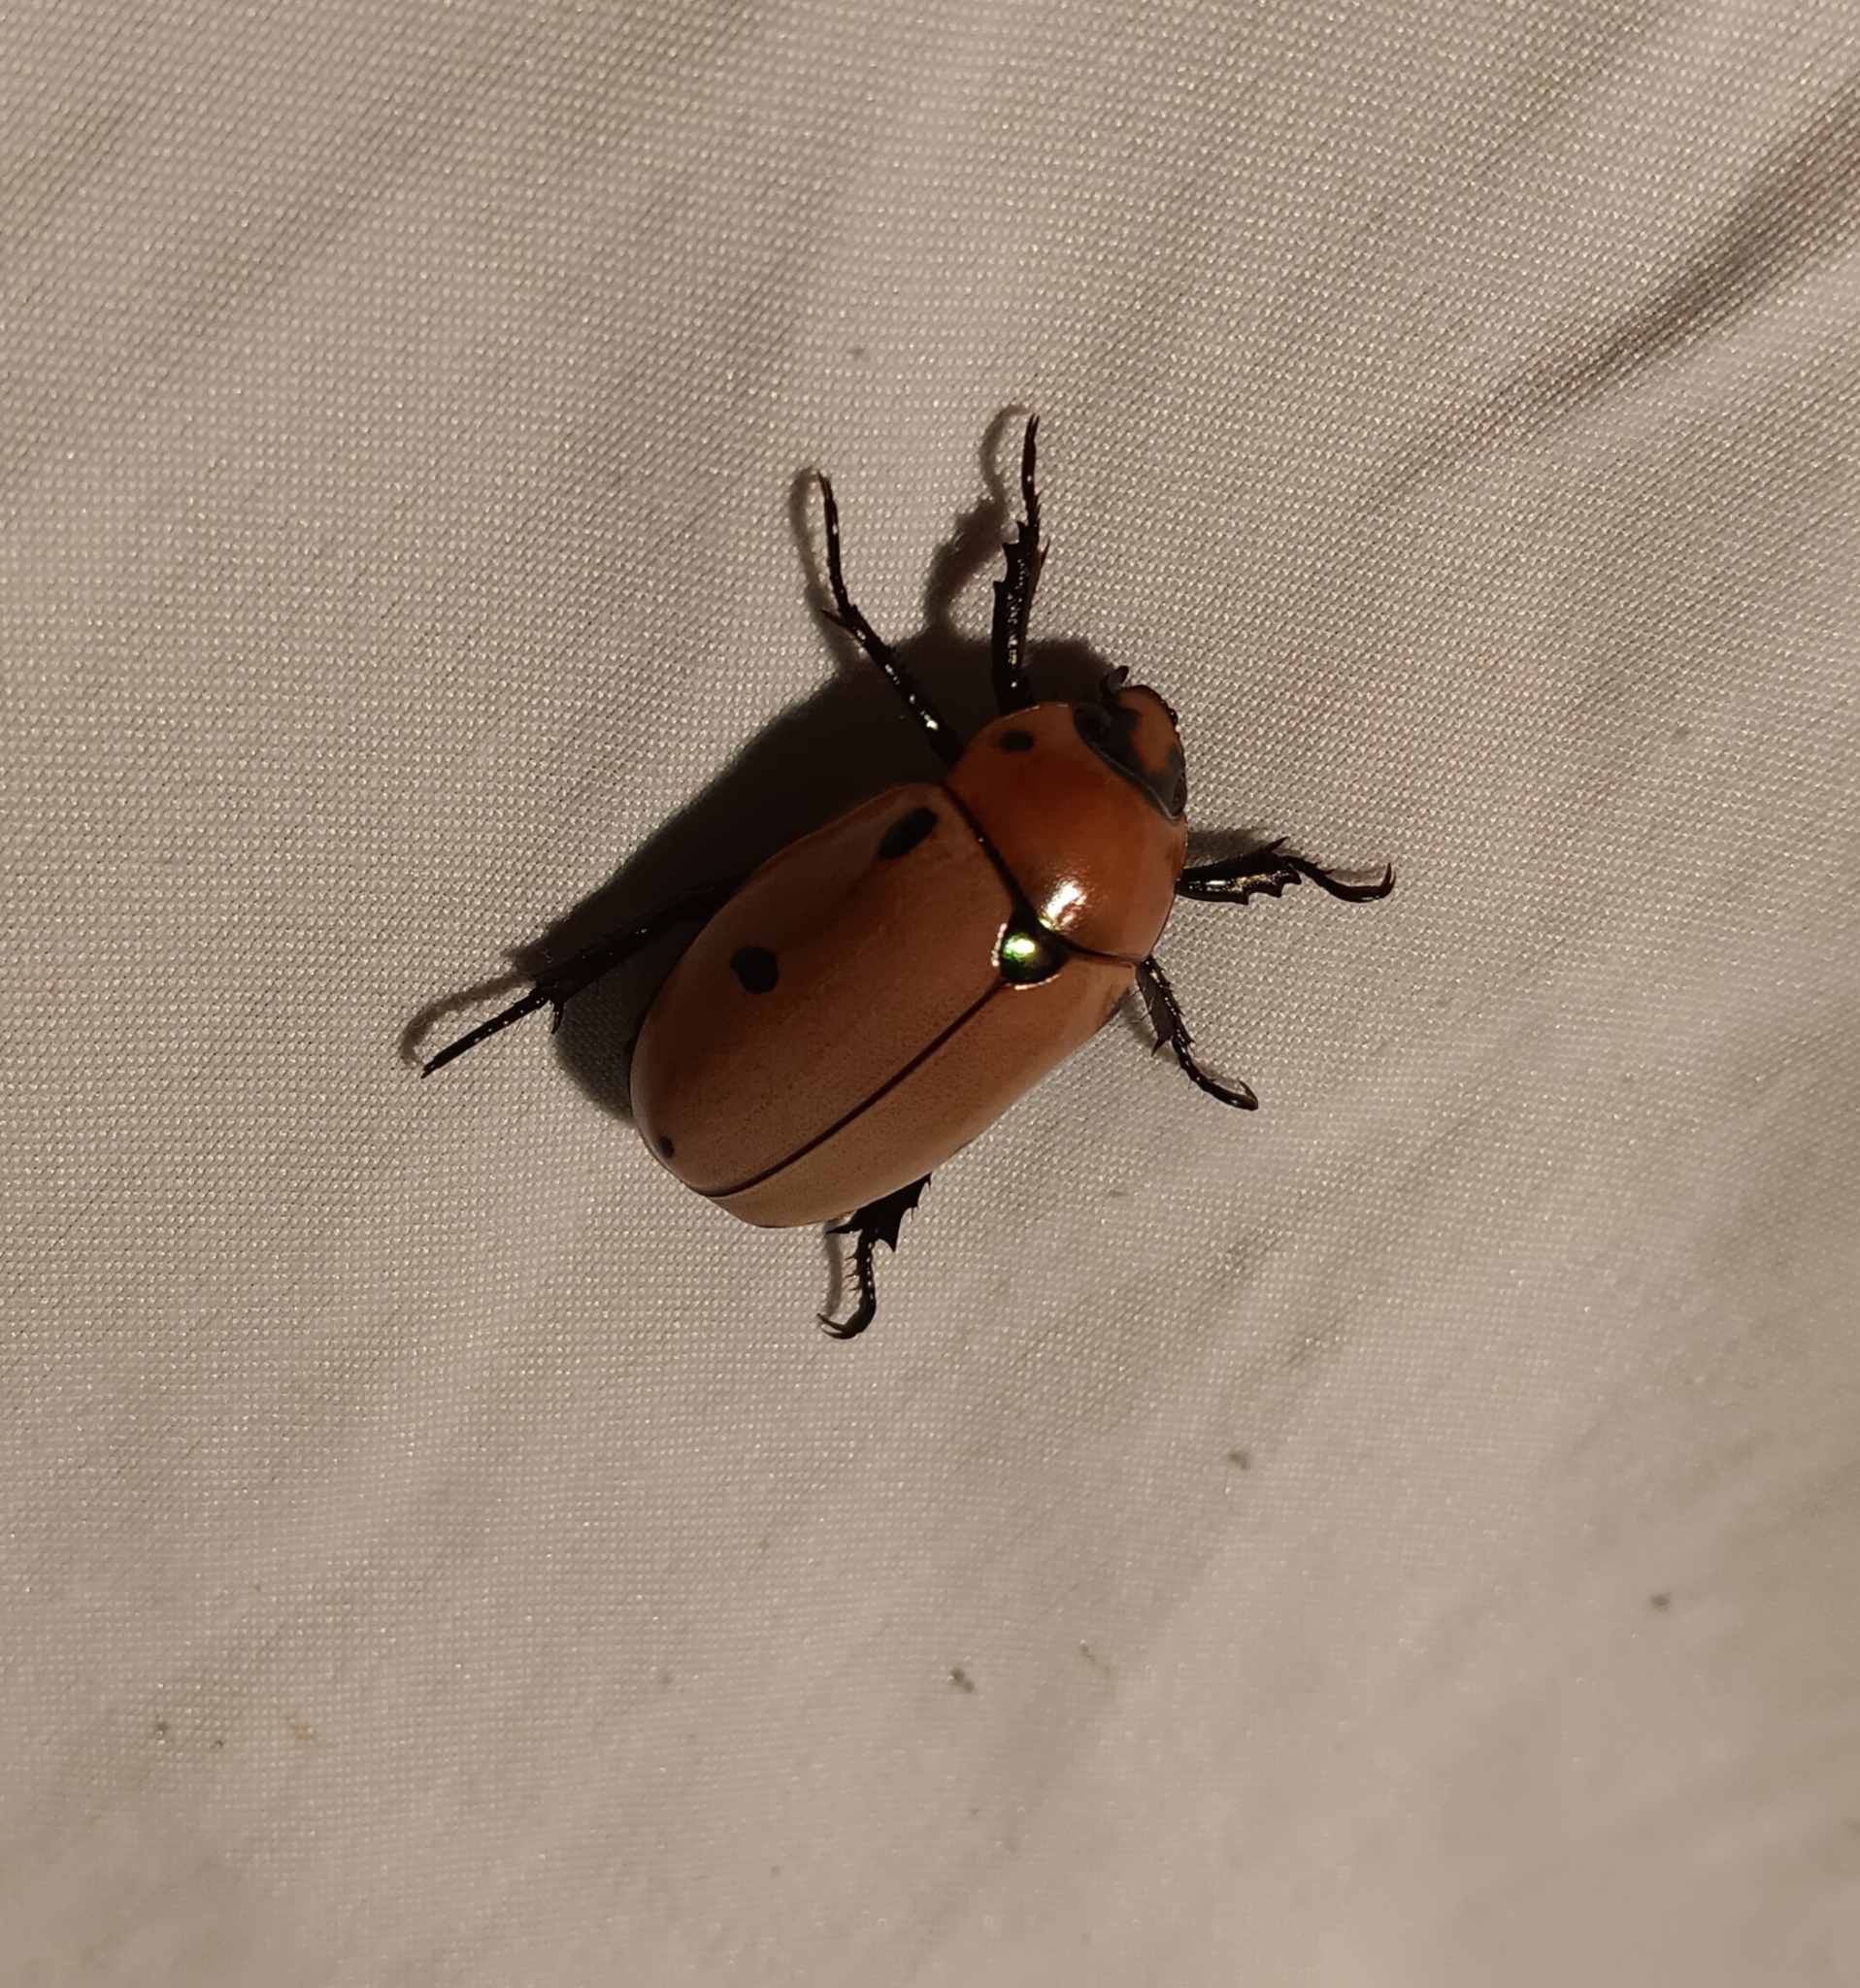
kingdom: Animalia
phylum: Arthropoda
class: Insecta
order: Coleoptera
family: Scarabaeidae
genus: Pelidnota
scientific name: Pelidnota punctata
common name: Grapevine beetle
